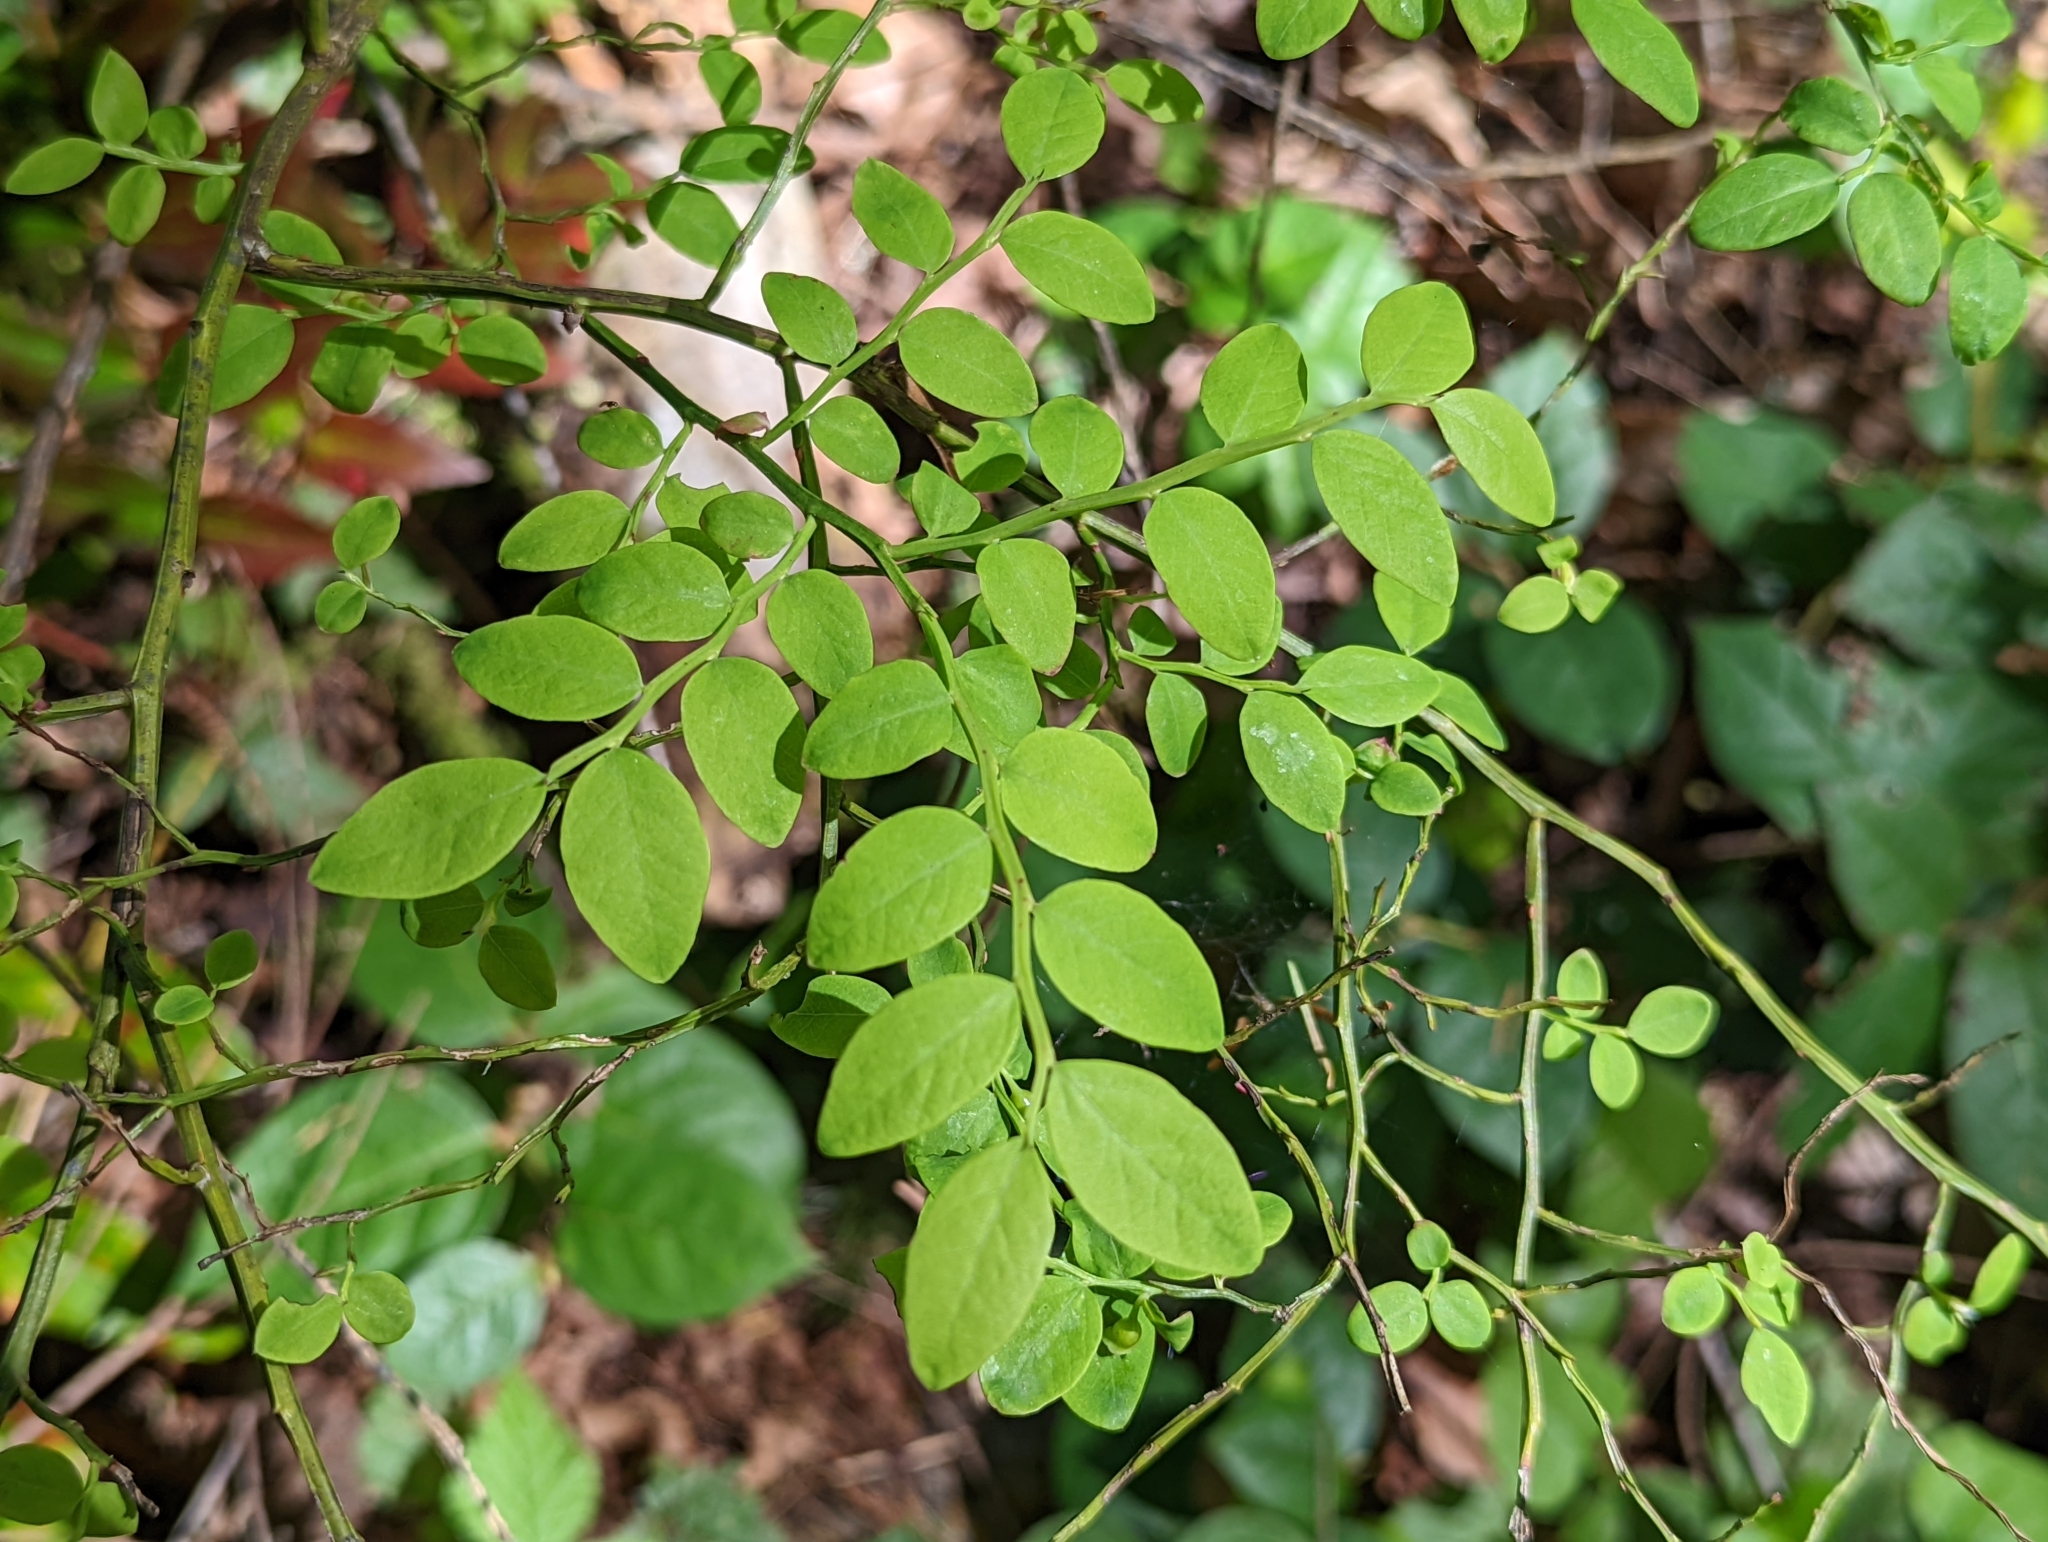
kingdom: Plantae
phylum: Tracheophyta
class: Magnoliopsida
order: Ericales
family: Ericaceae
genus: Vaccinium
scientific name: Vaccinium parvifolium
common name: Red-huckleberry
